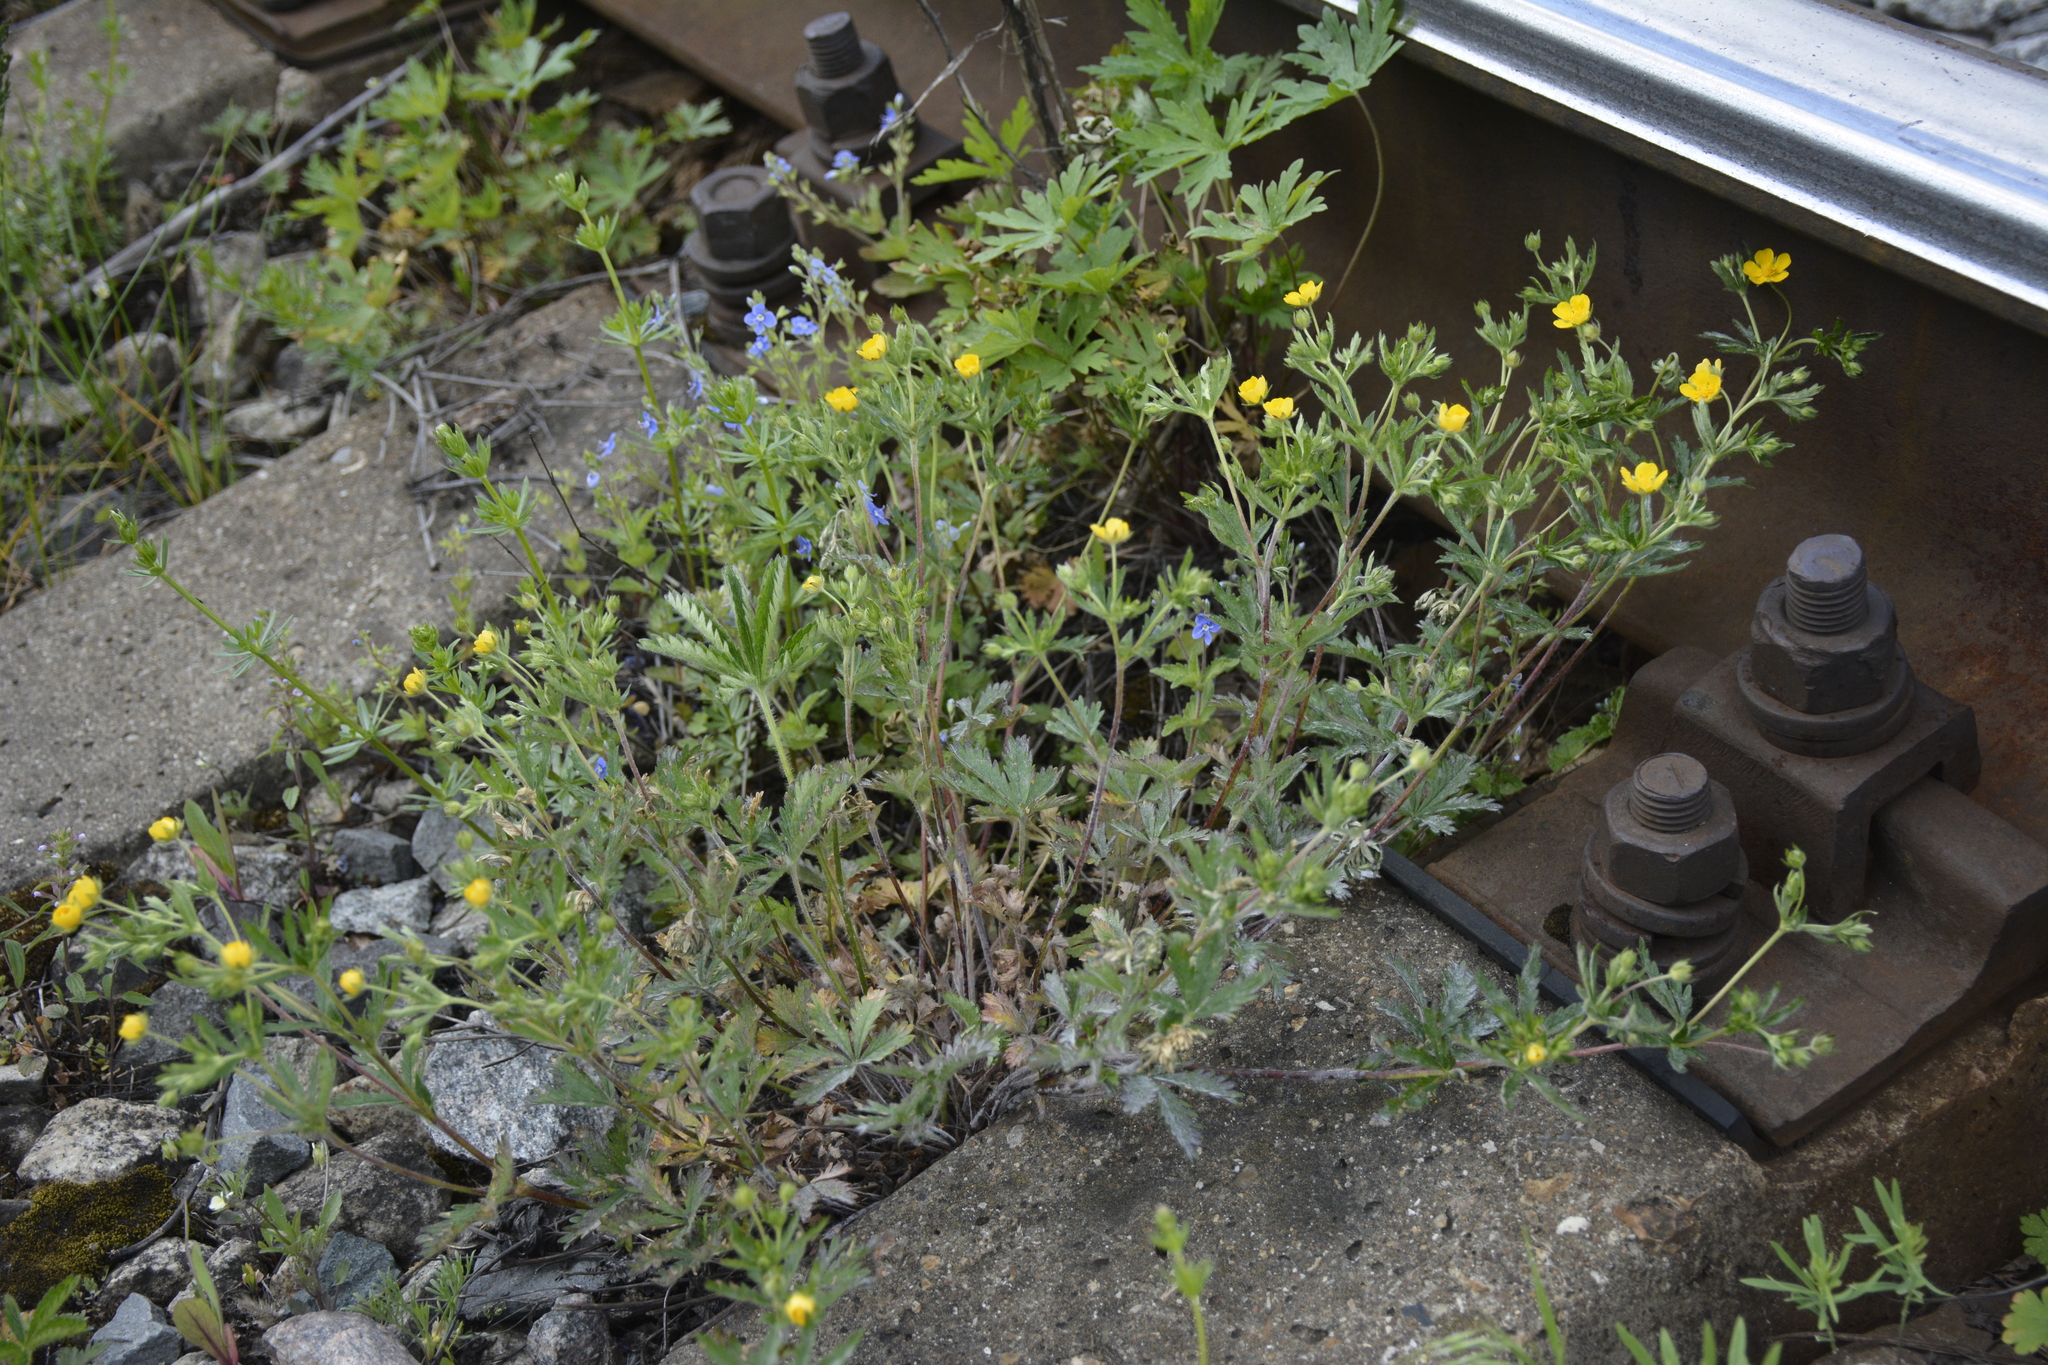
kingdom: Plantae
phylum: Tracheophyta
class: Magnoliopsida
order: Rosales
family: Rosaceae
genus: Potentilla
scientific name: Potentilla thuringiaca
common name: European cinquefoil
